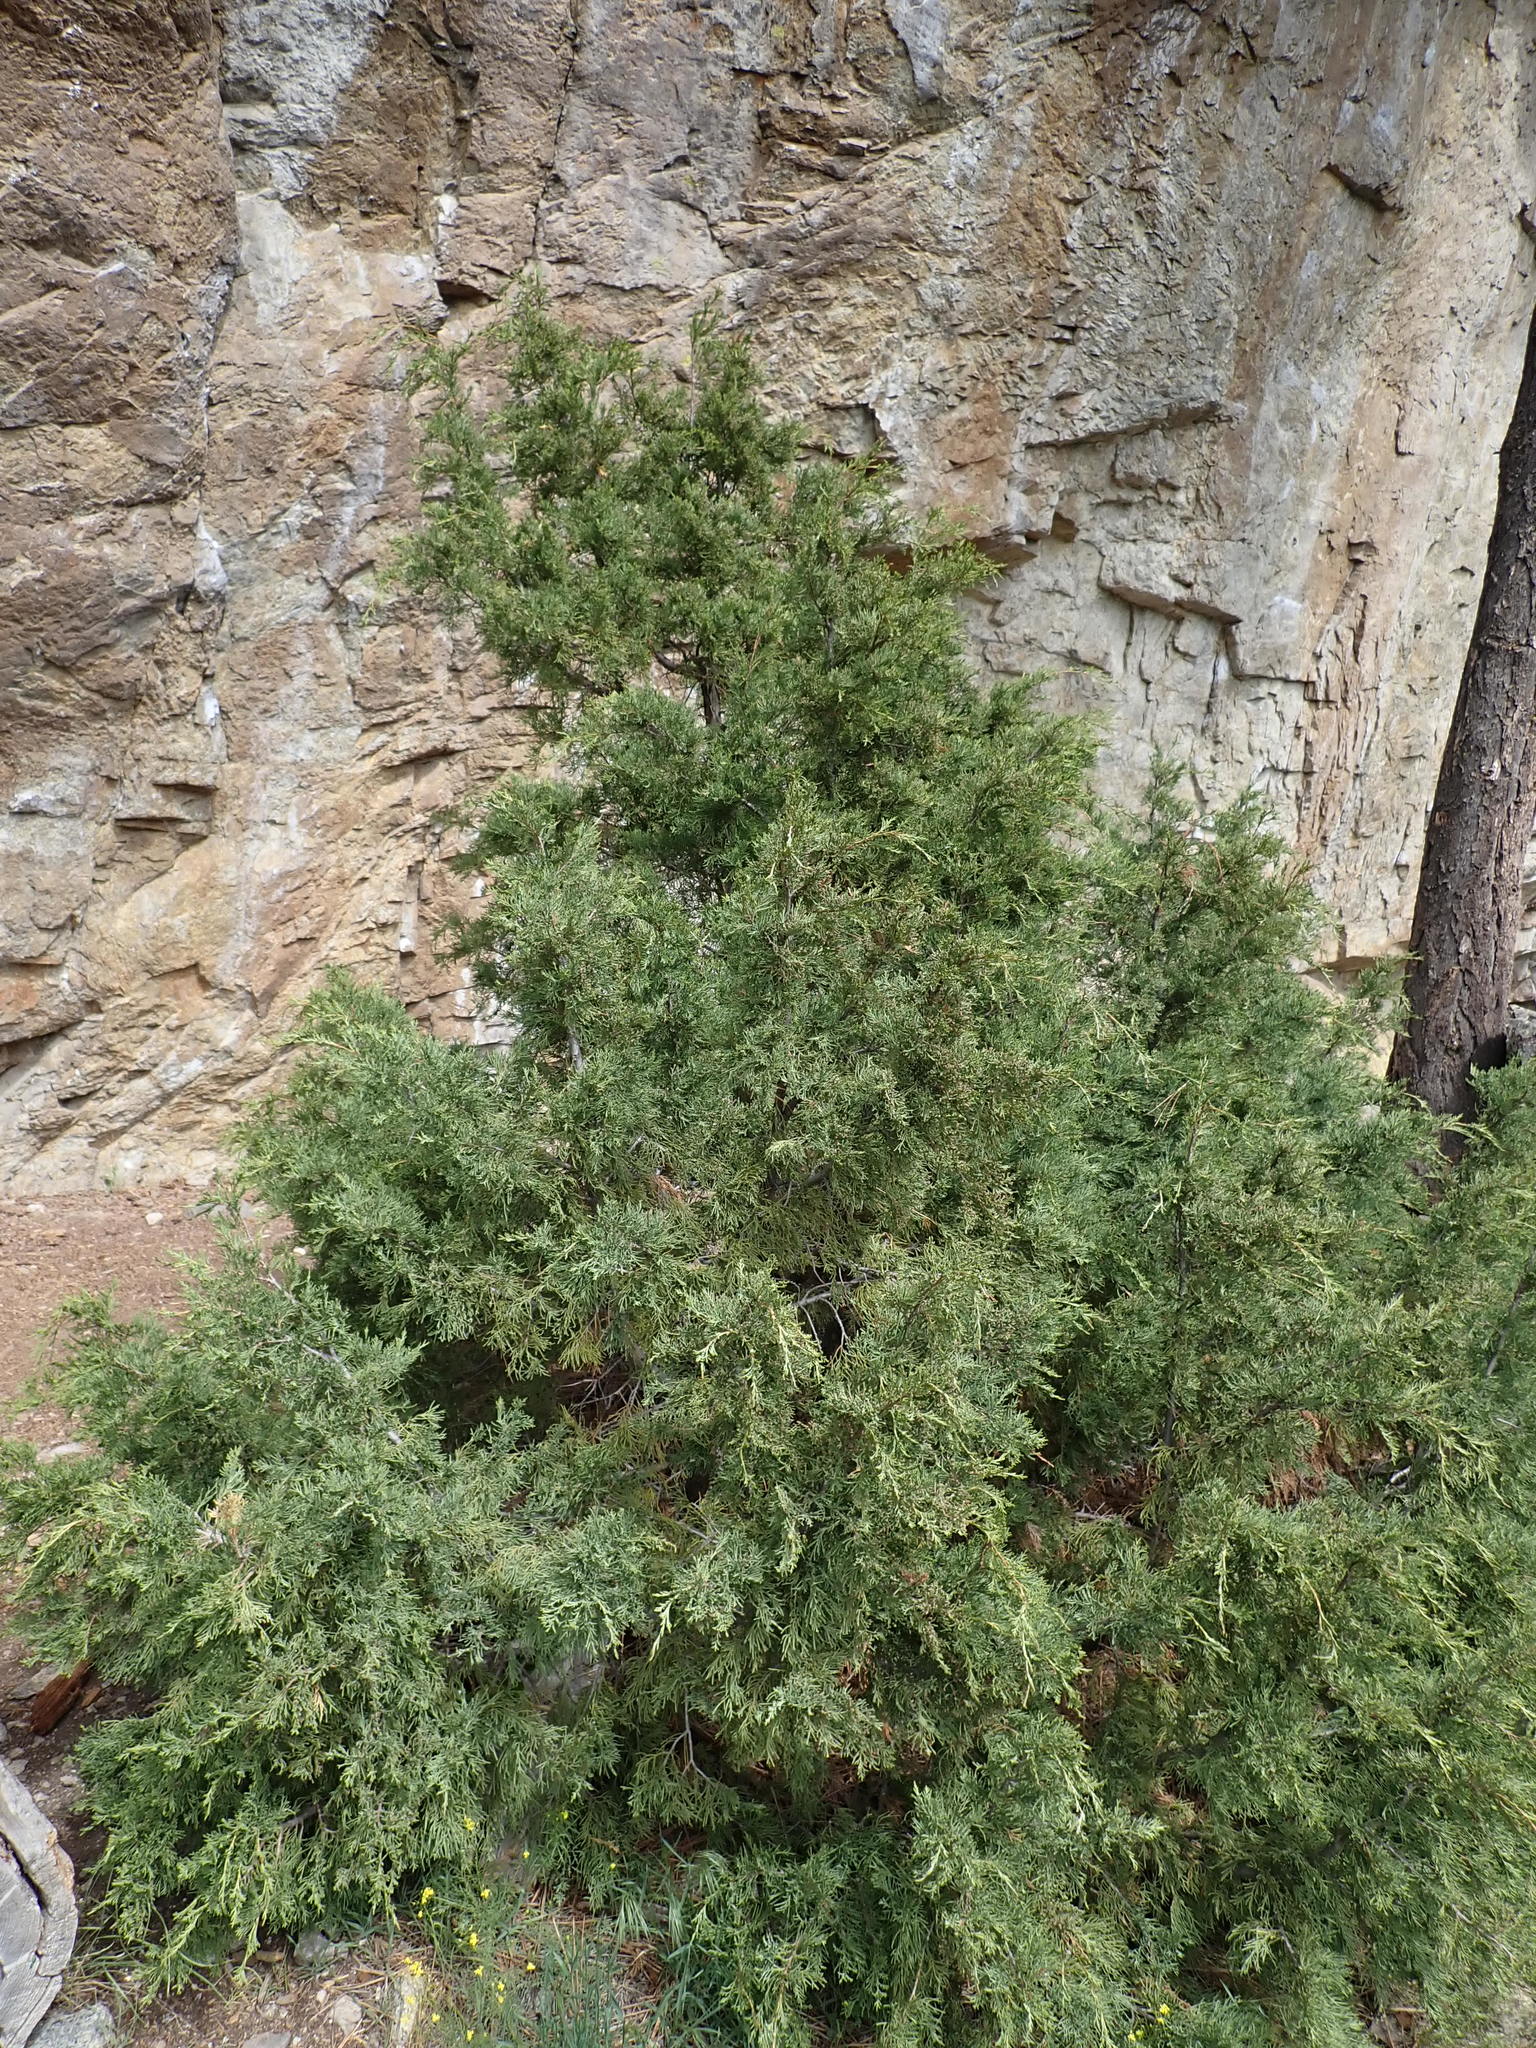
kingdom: Plantae
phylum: Tracheophyta
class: Pinopsida
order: Pinales
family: Cupressaceae
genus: Juniperus
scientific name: Juniperus scopulorum
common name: Rocky mountain juniper
